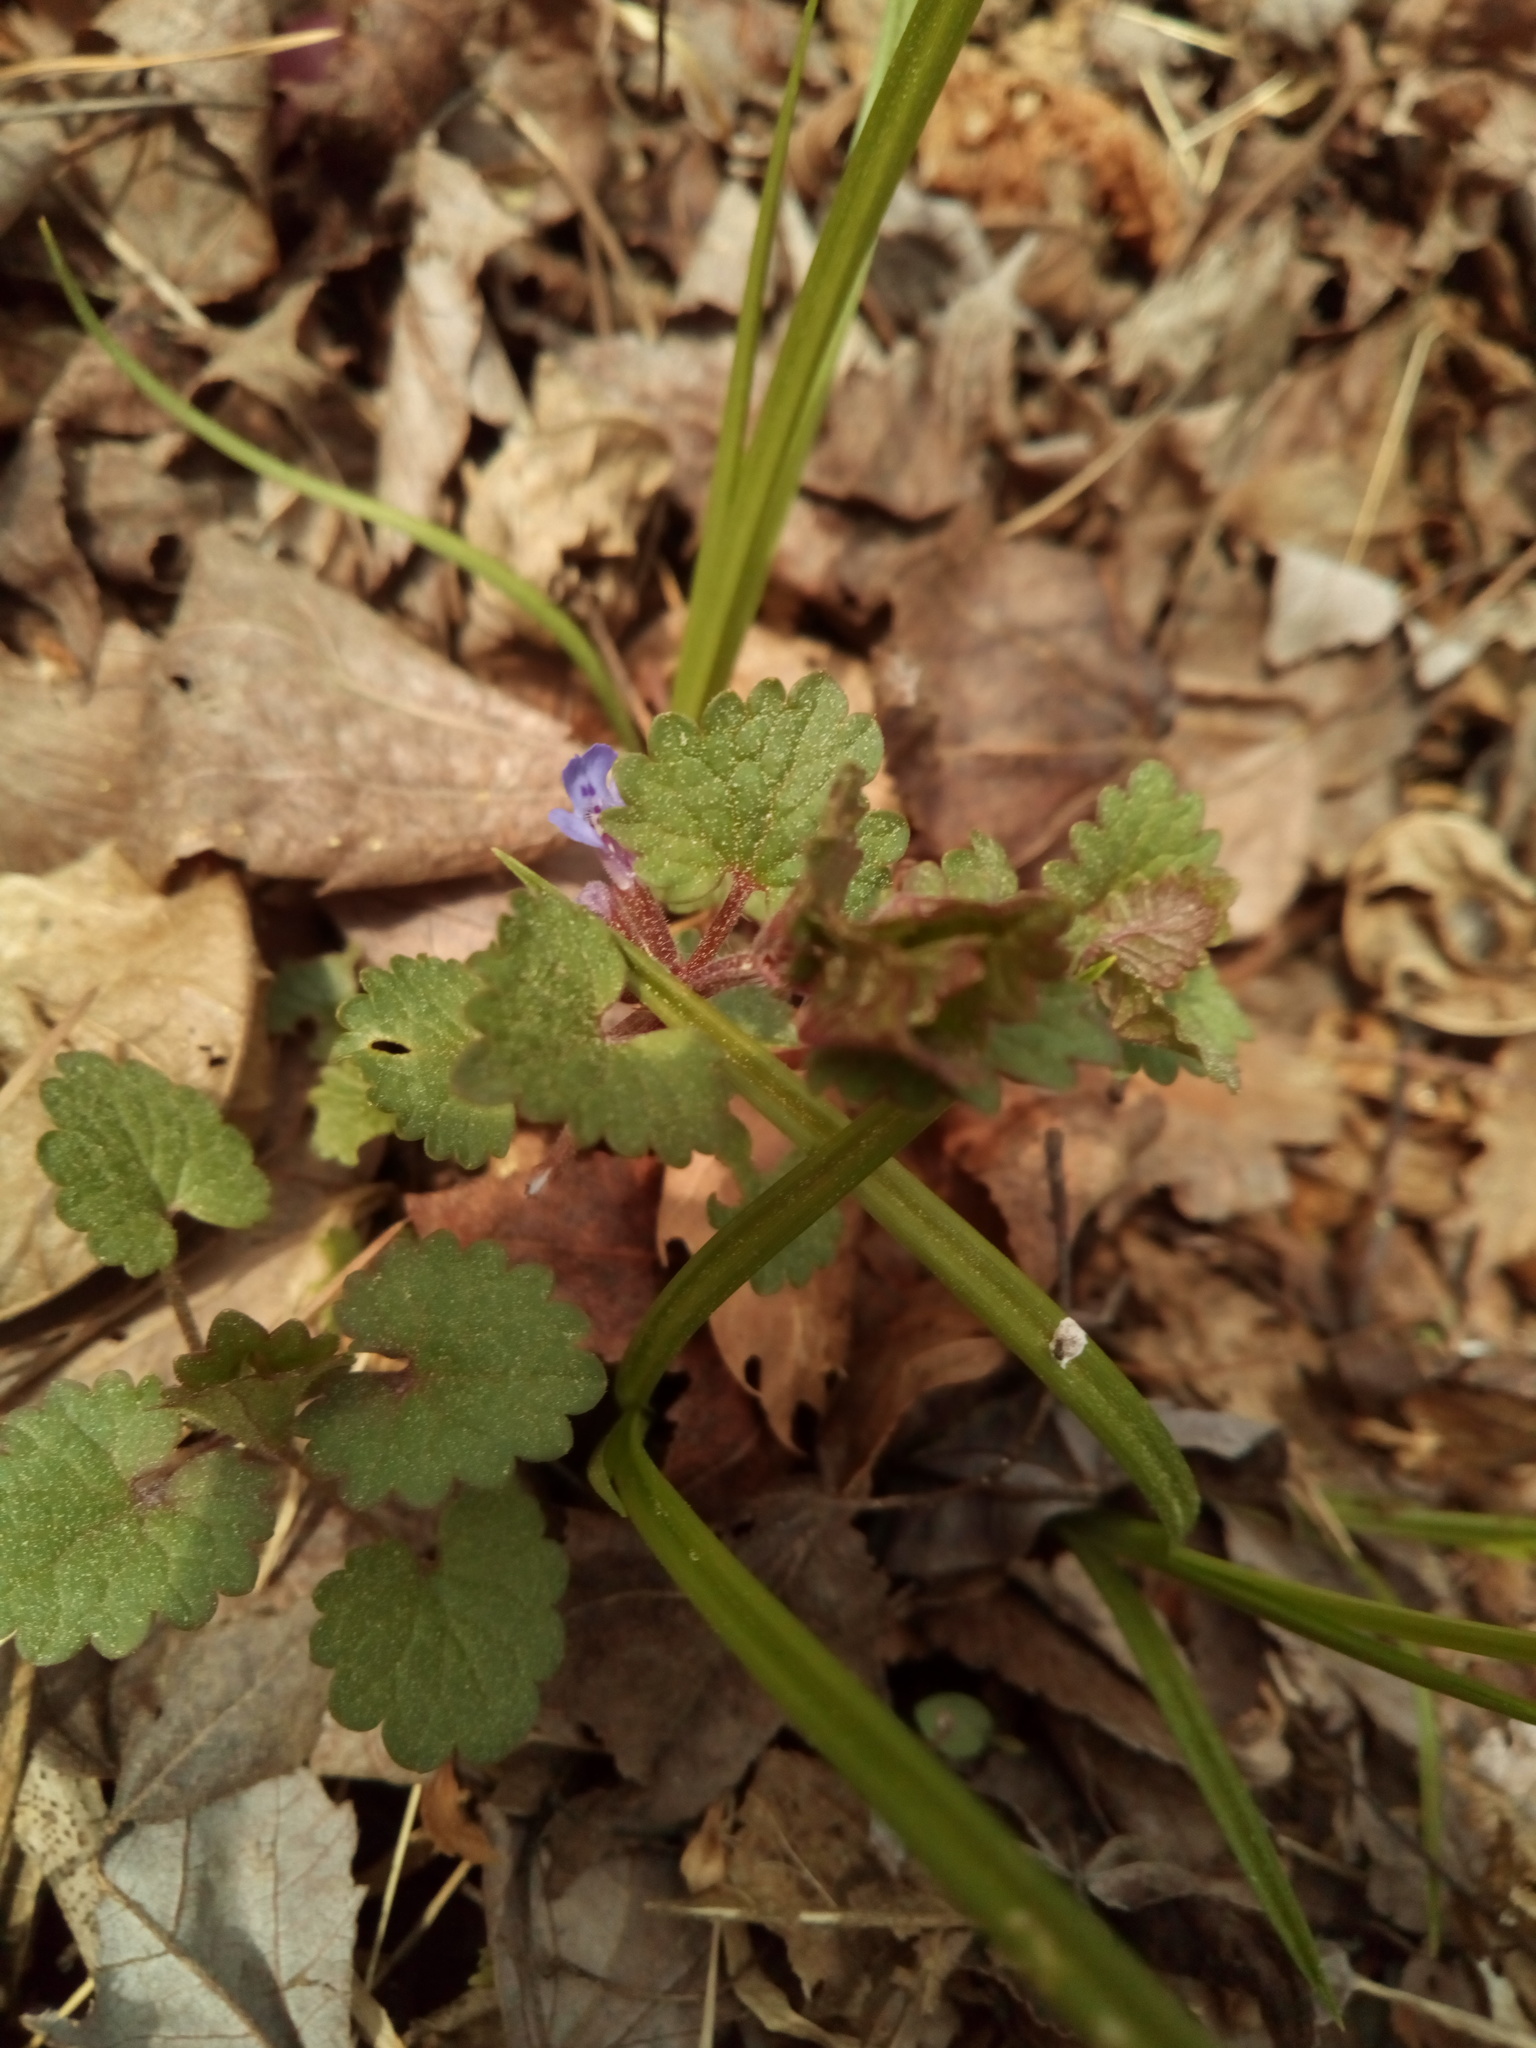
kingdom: Plantae
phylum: Tracheophyta
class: Magnoliopsida
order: Lamiales
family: Lamiaceae
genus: Glechoma
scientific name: Glechoma hederacea
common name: Ground ivy
